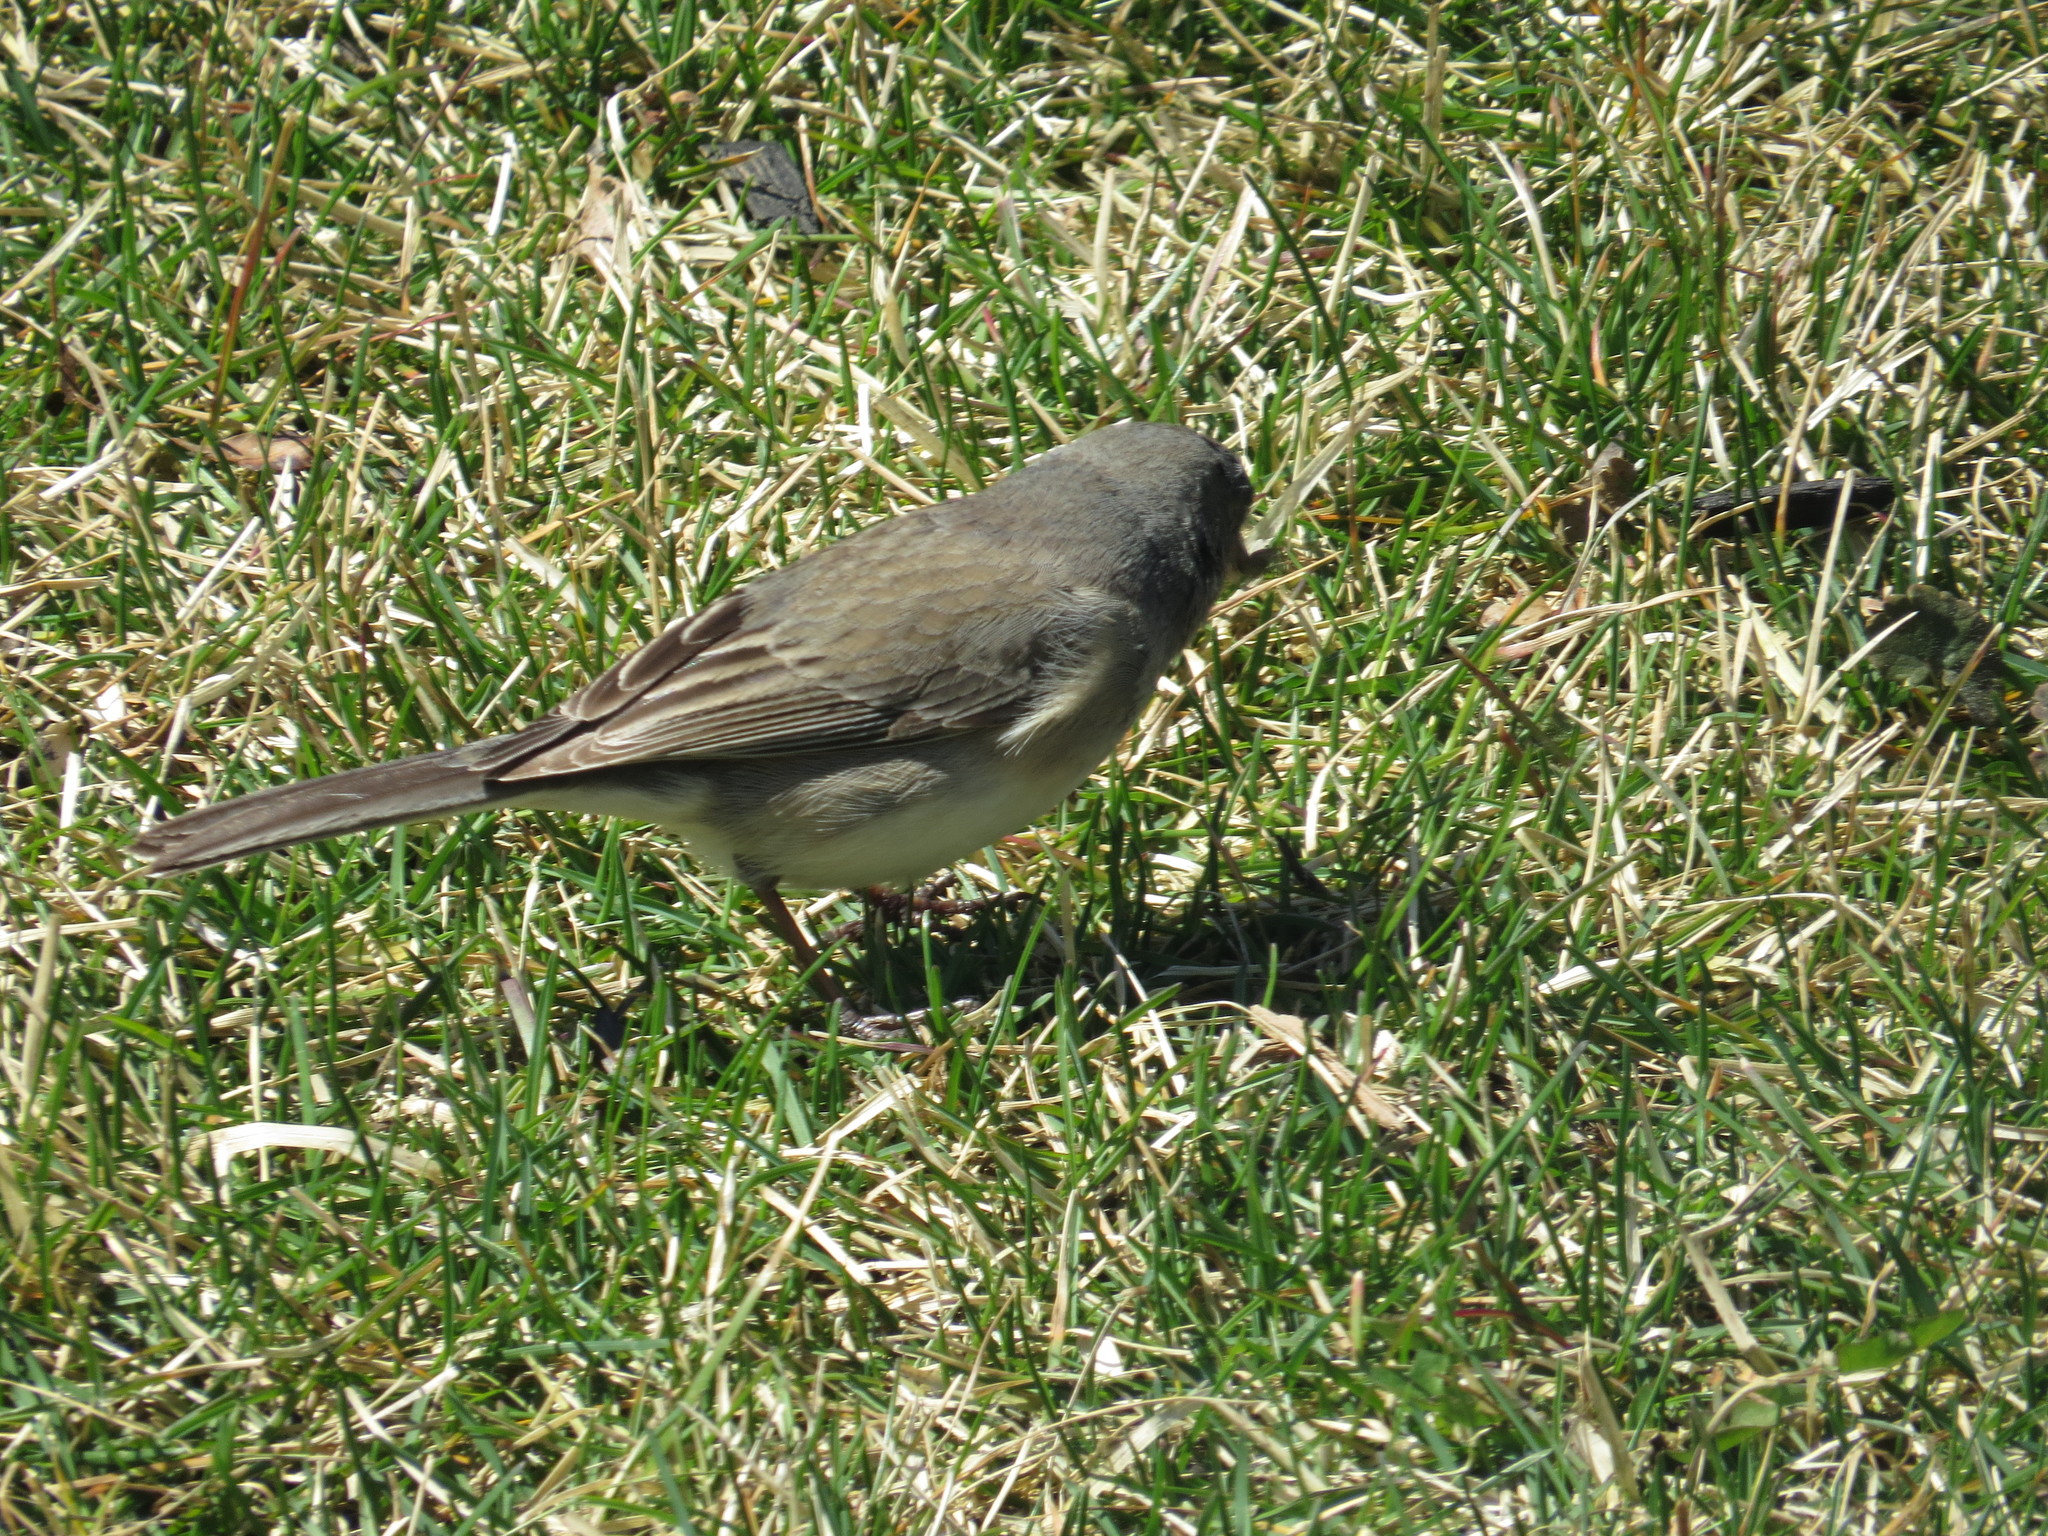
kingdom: Animalia
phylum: Chordata
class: Aves
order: Passeriformes
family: Passerellidae
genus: Junco
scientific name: Junco hyemalis
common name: Dark-eyed junco
